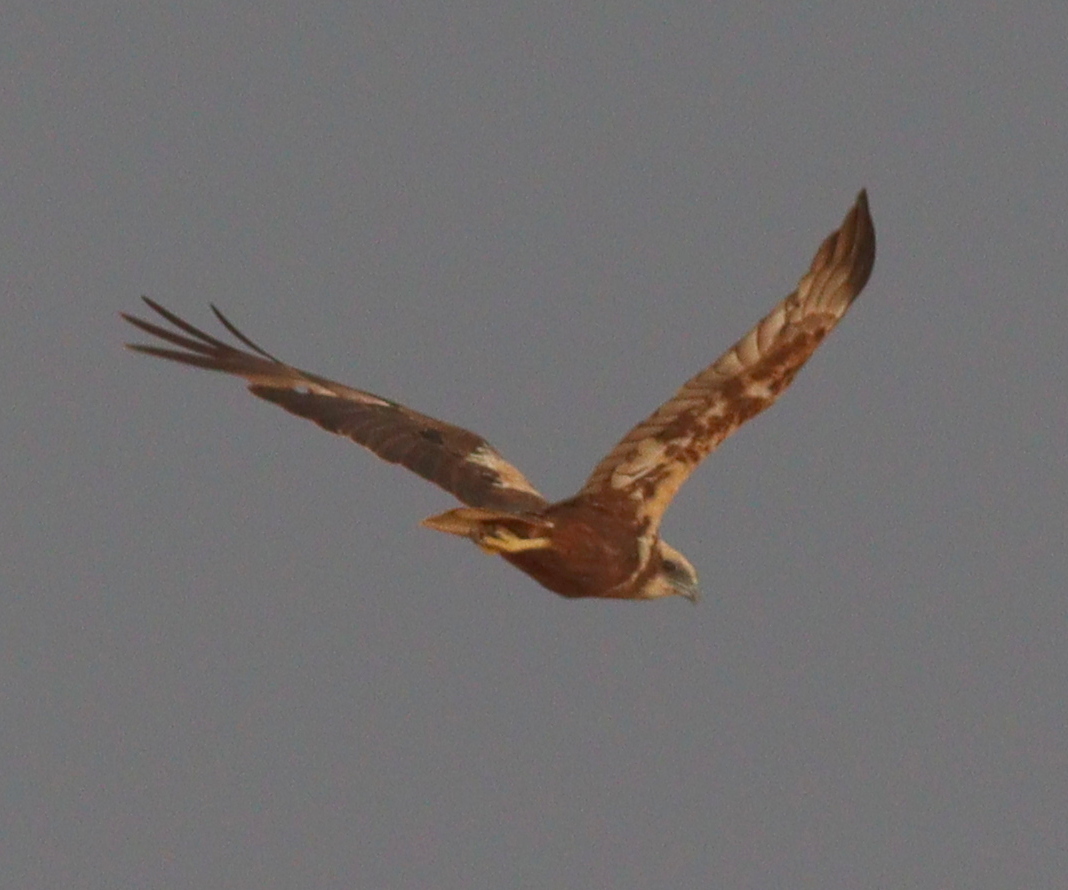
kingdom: Animalia
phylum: Chordata
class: Aves
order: Accipitriformes
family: Accipitridae
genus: Circus
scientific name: Circus aeruginosus
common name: Western marsh harrier
